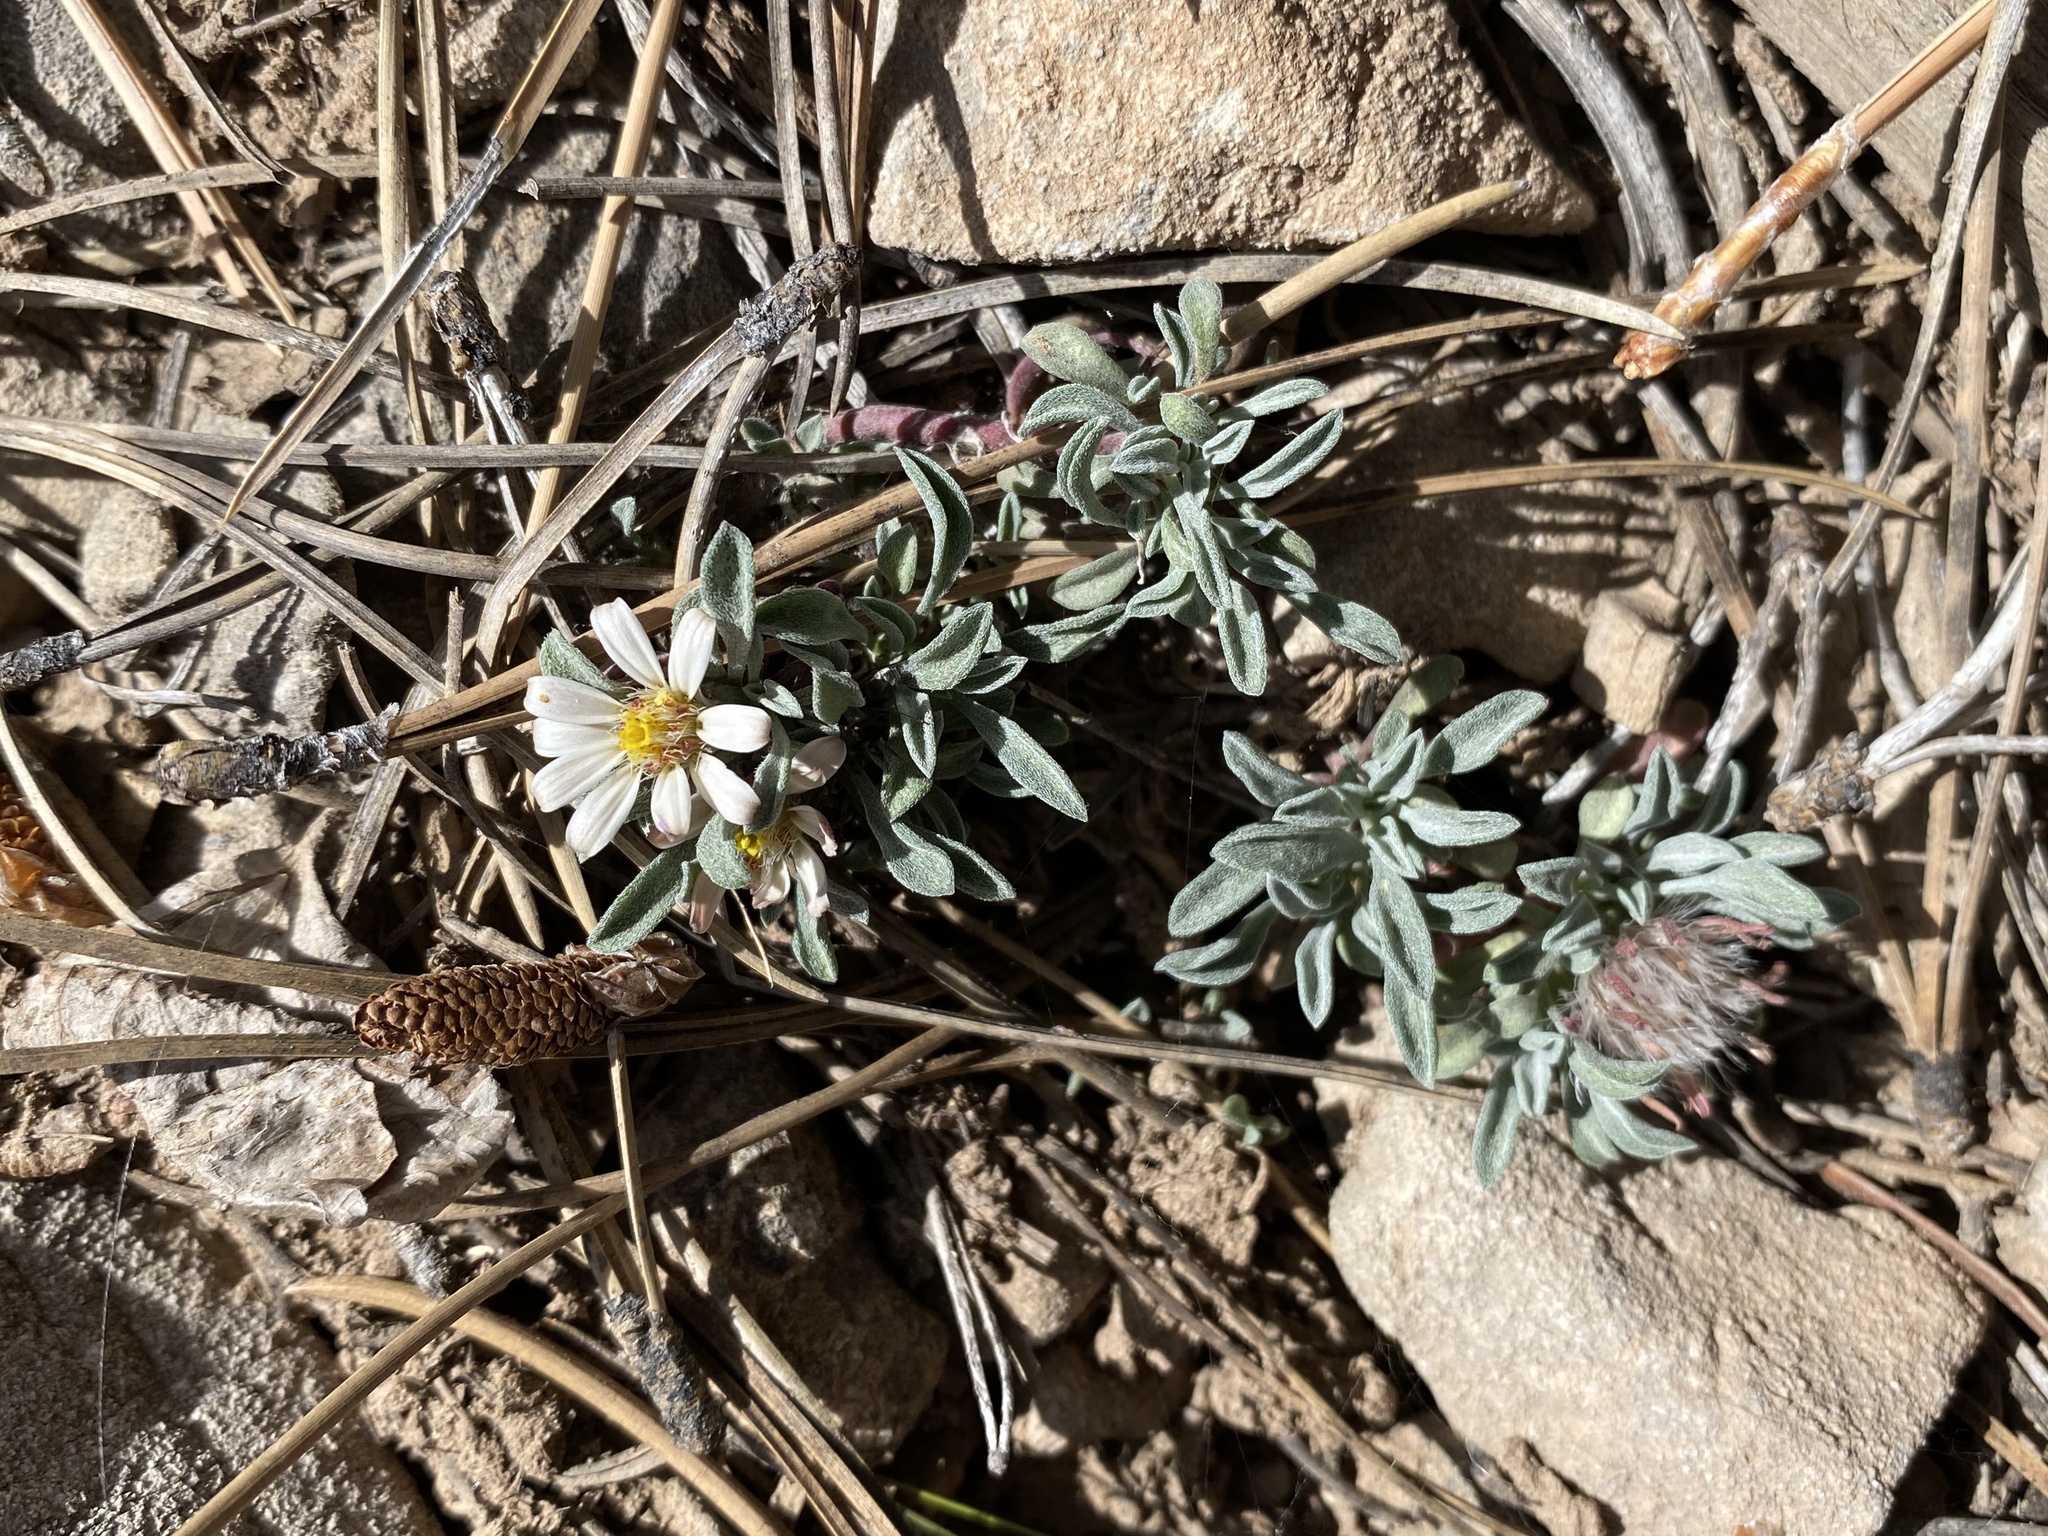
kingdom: Plantae
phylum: Tracheophyta
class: Magnoliopsida
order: Asterales
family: Asteraceae
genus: Townsendia
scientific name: Townsendia jonesii
